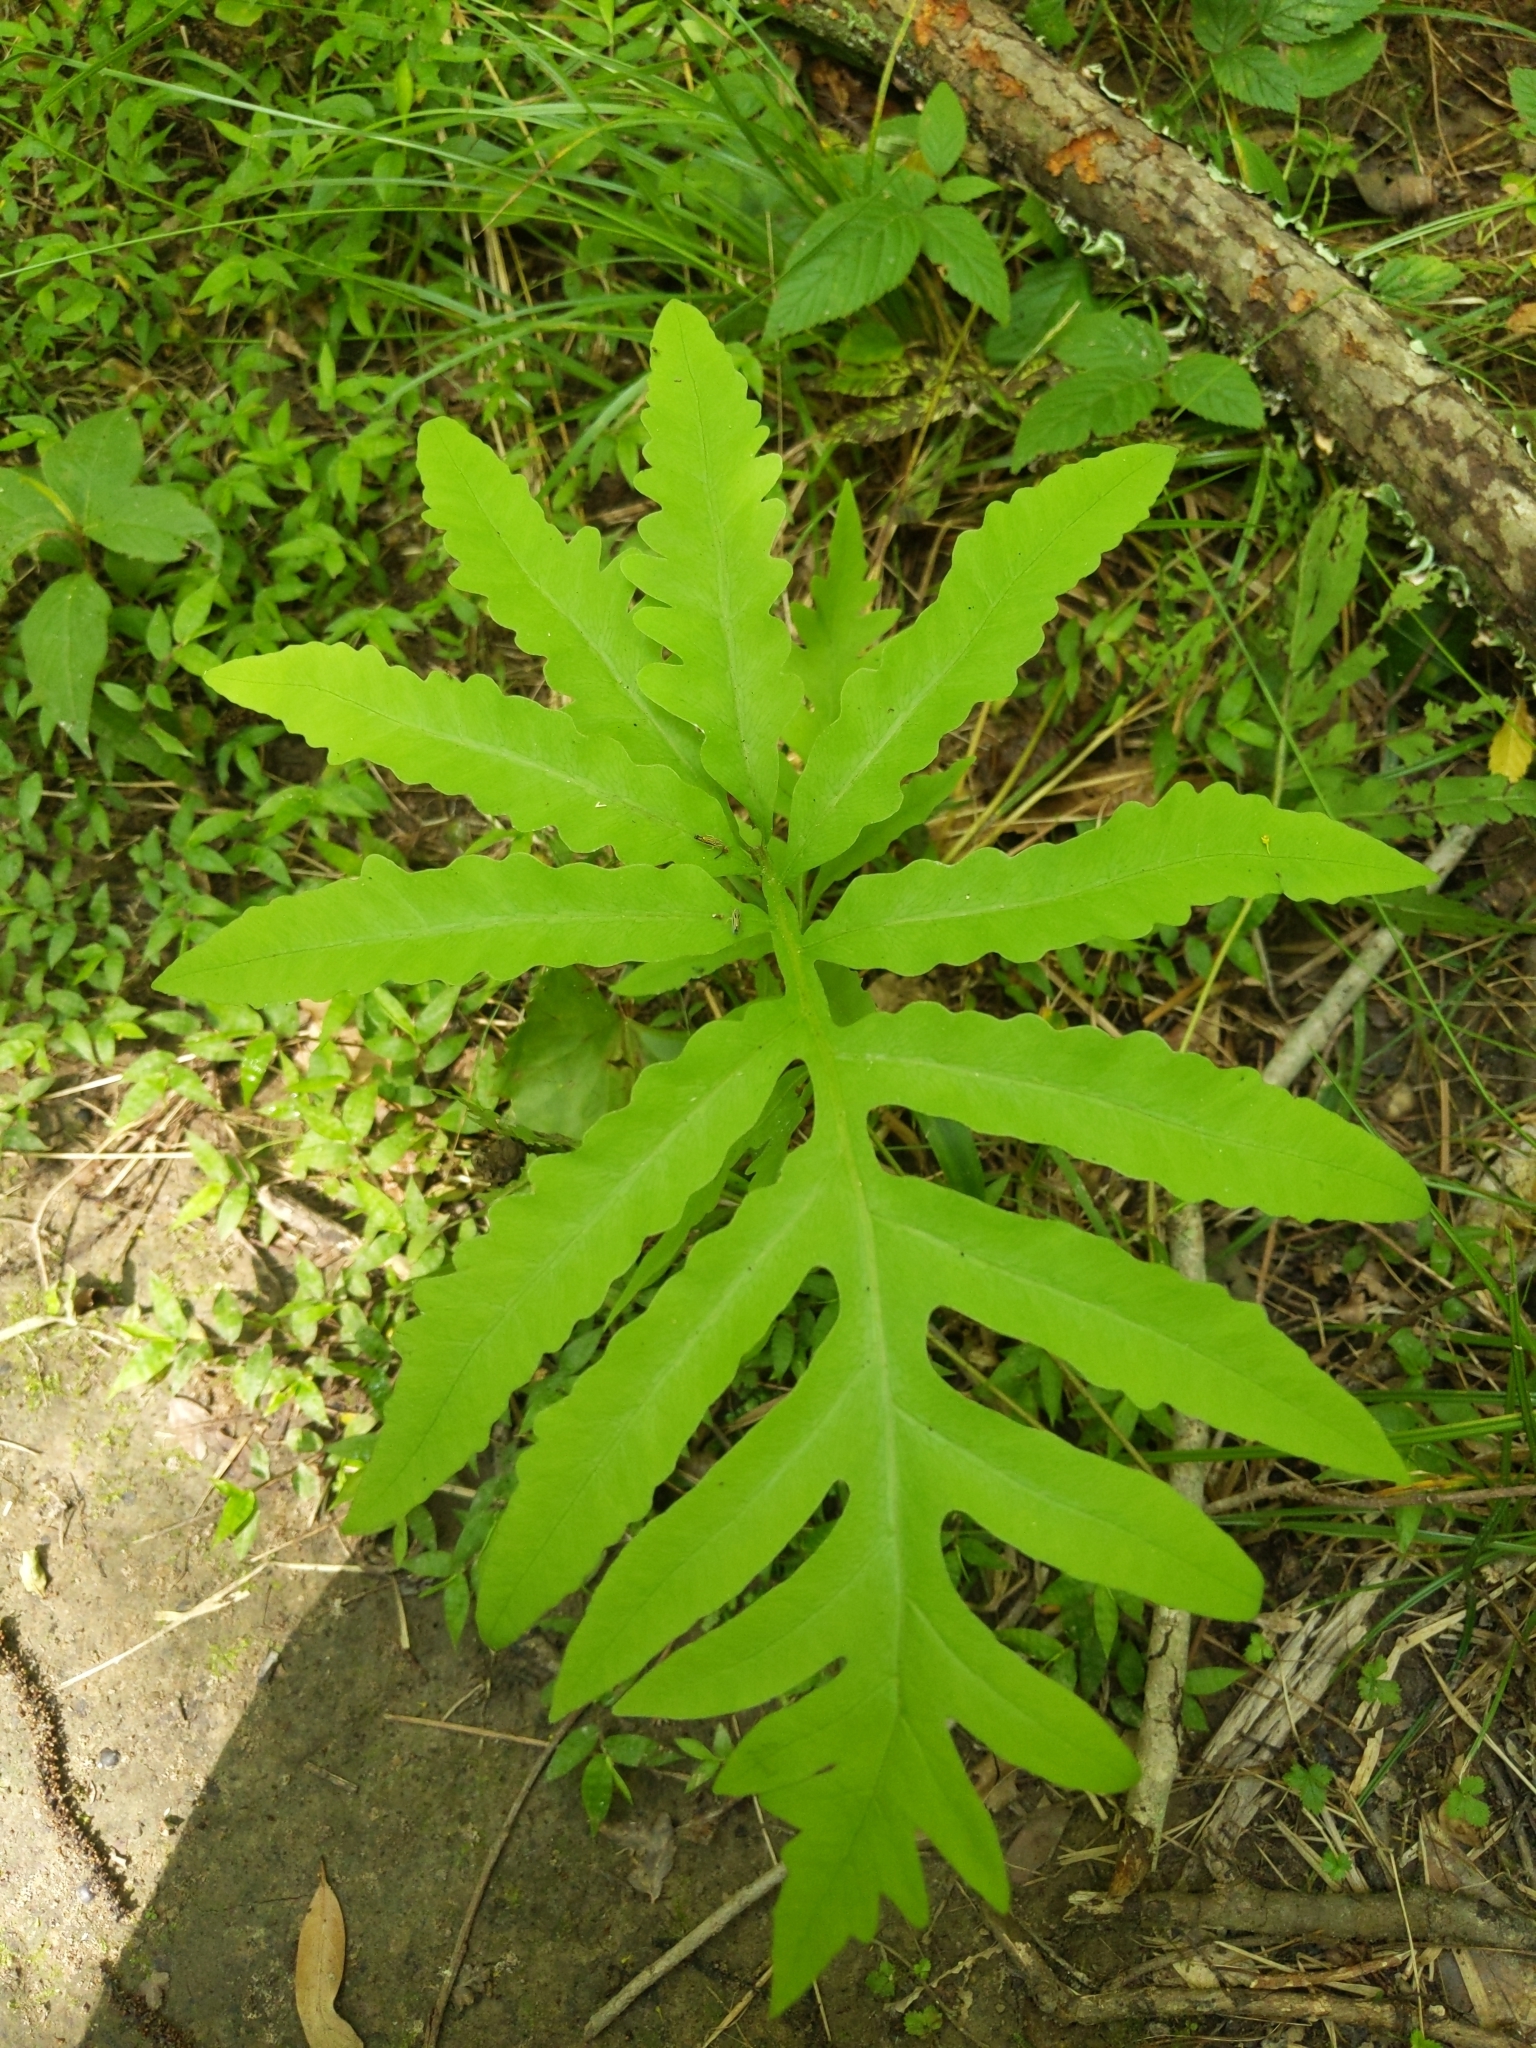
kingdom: Plantae
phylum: Tracheophyta
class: Polypodiopsida
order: Polypodiales
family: Onocleaceae
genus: Onoclea
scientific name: Onoclea sensibilis
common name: Sensitive fern
